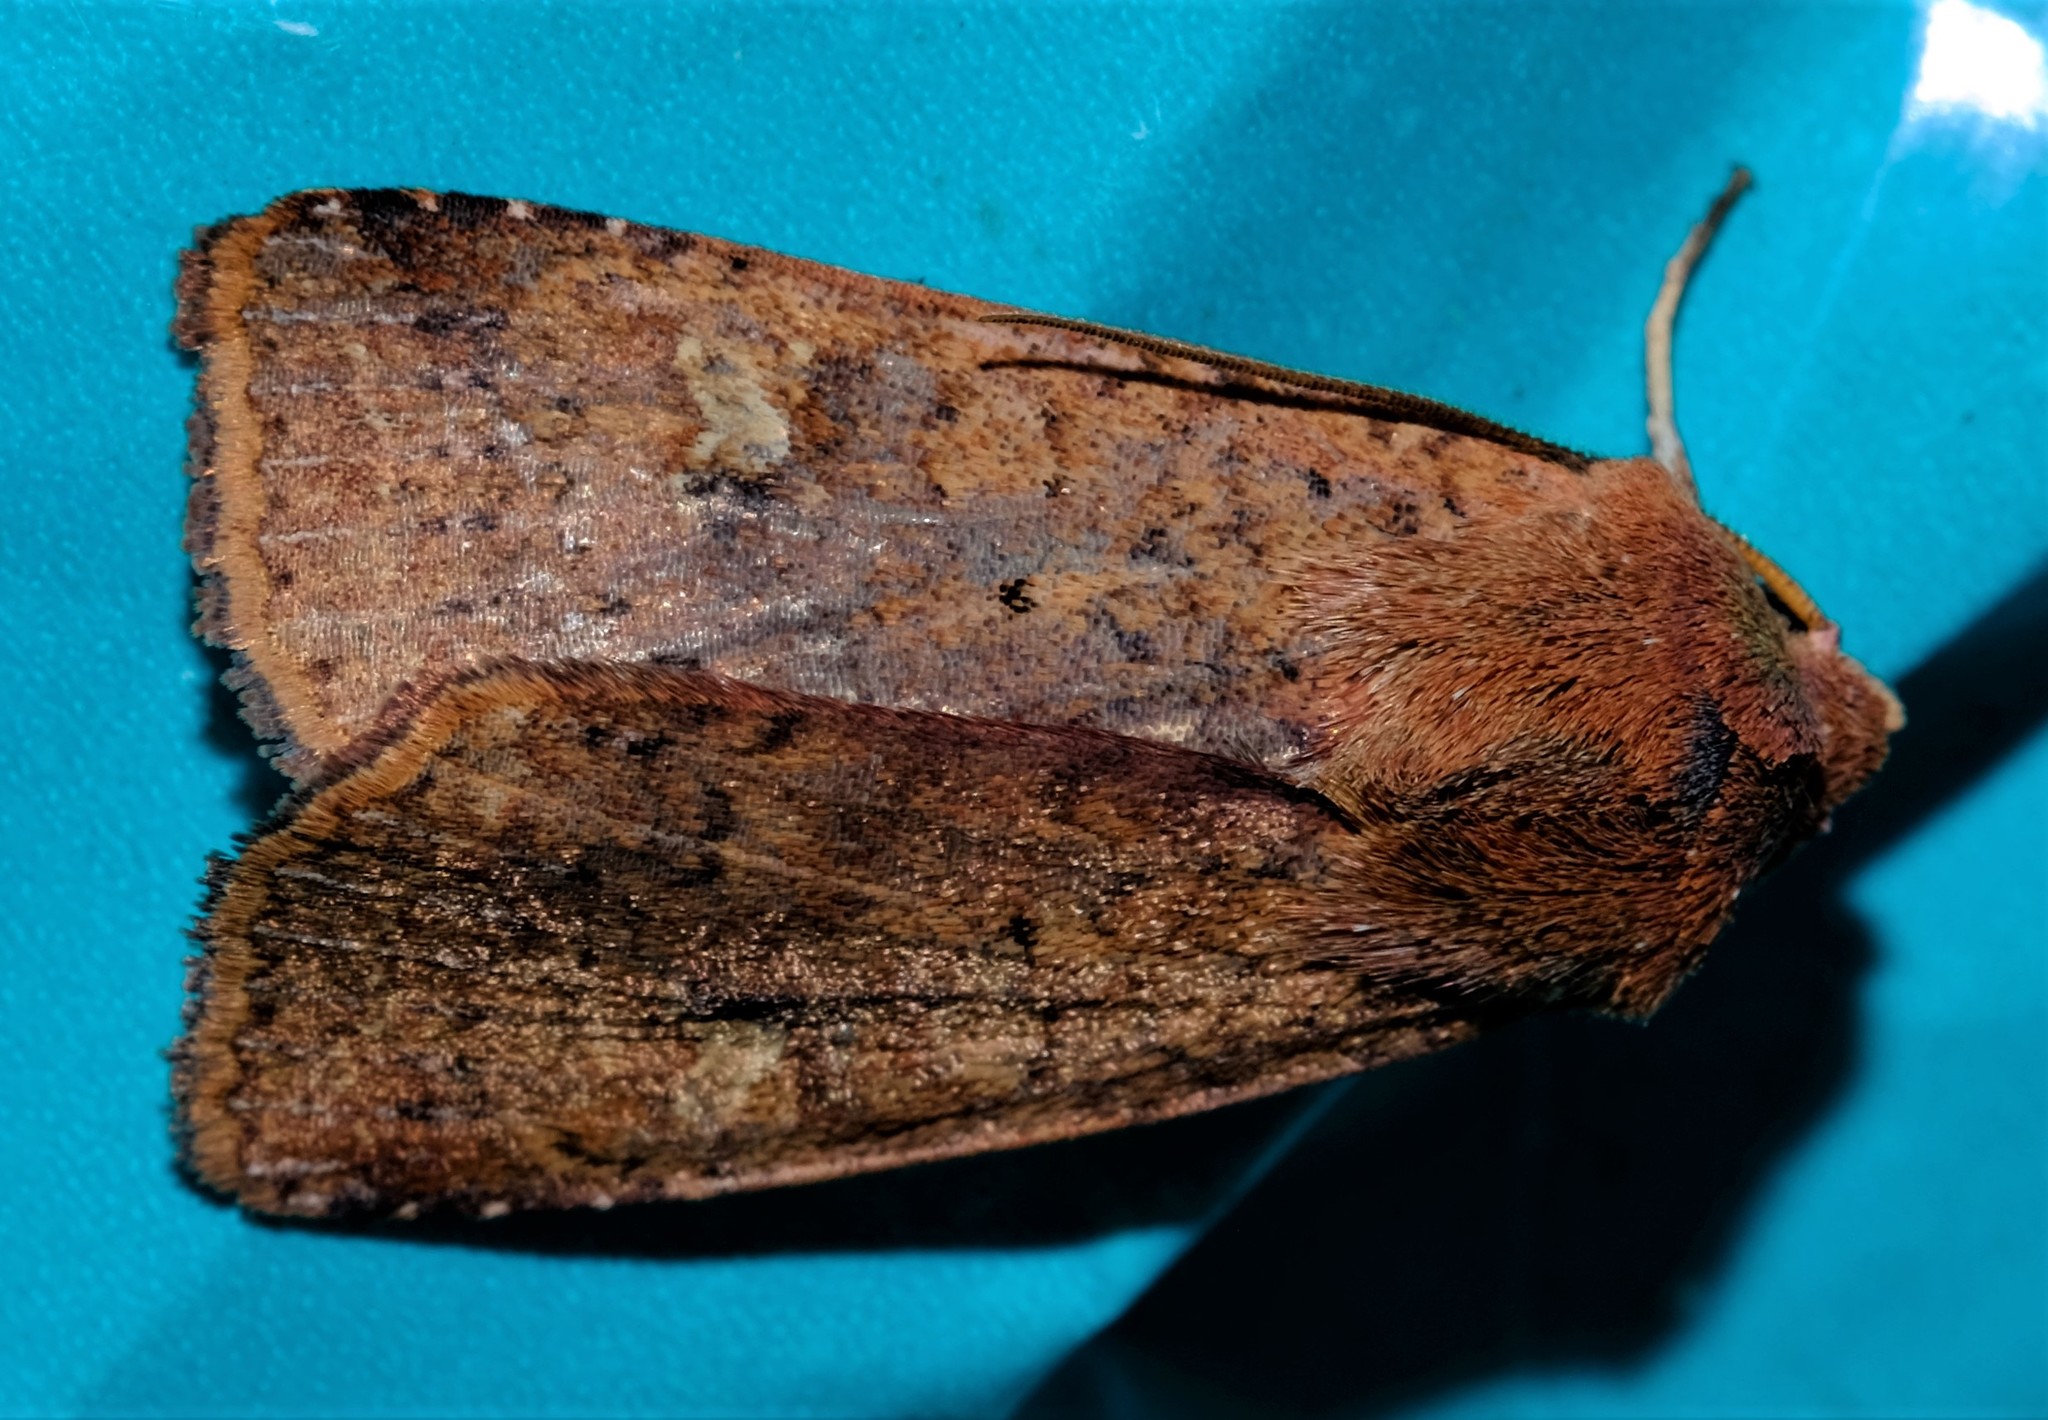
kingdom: Animalia
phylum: Arthropoda
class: Insecta
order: Lepidoptera
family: Noctuidae
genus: Diarsia
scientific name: Diarsia intermixta
